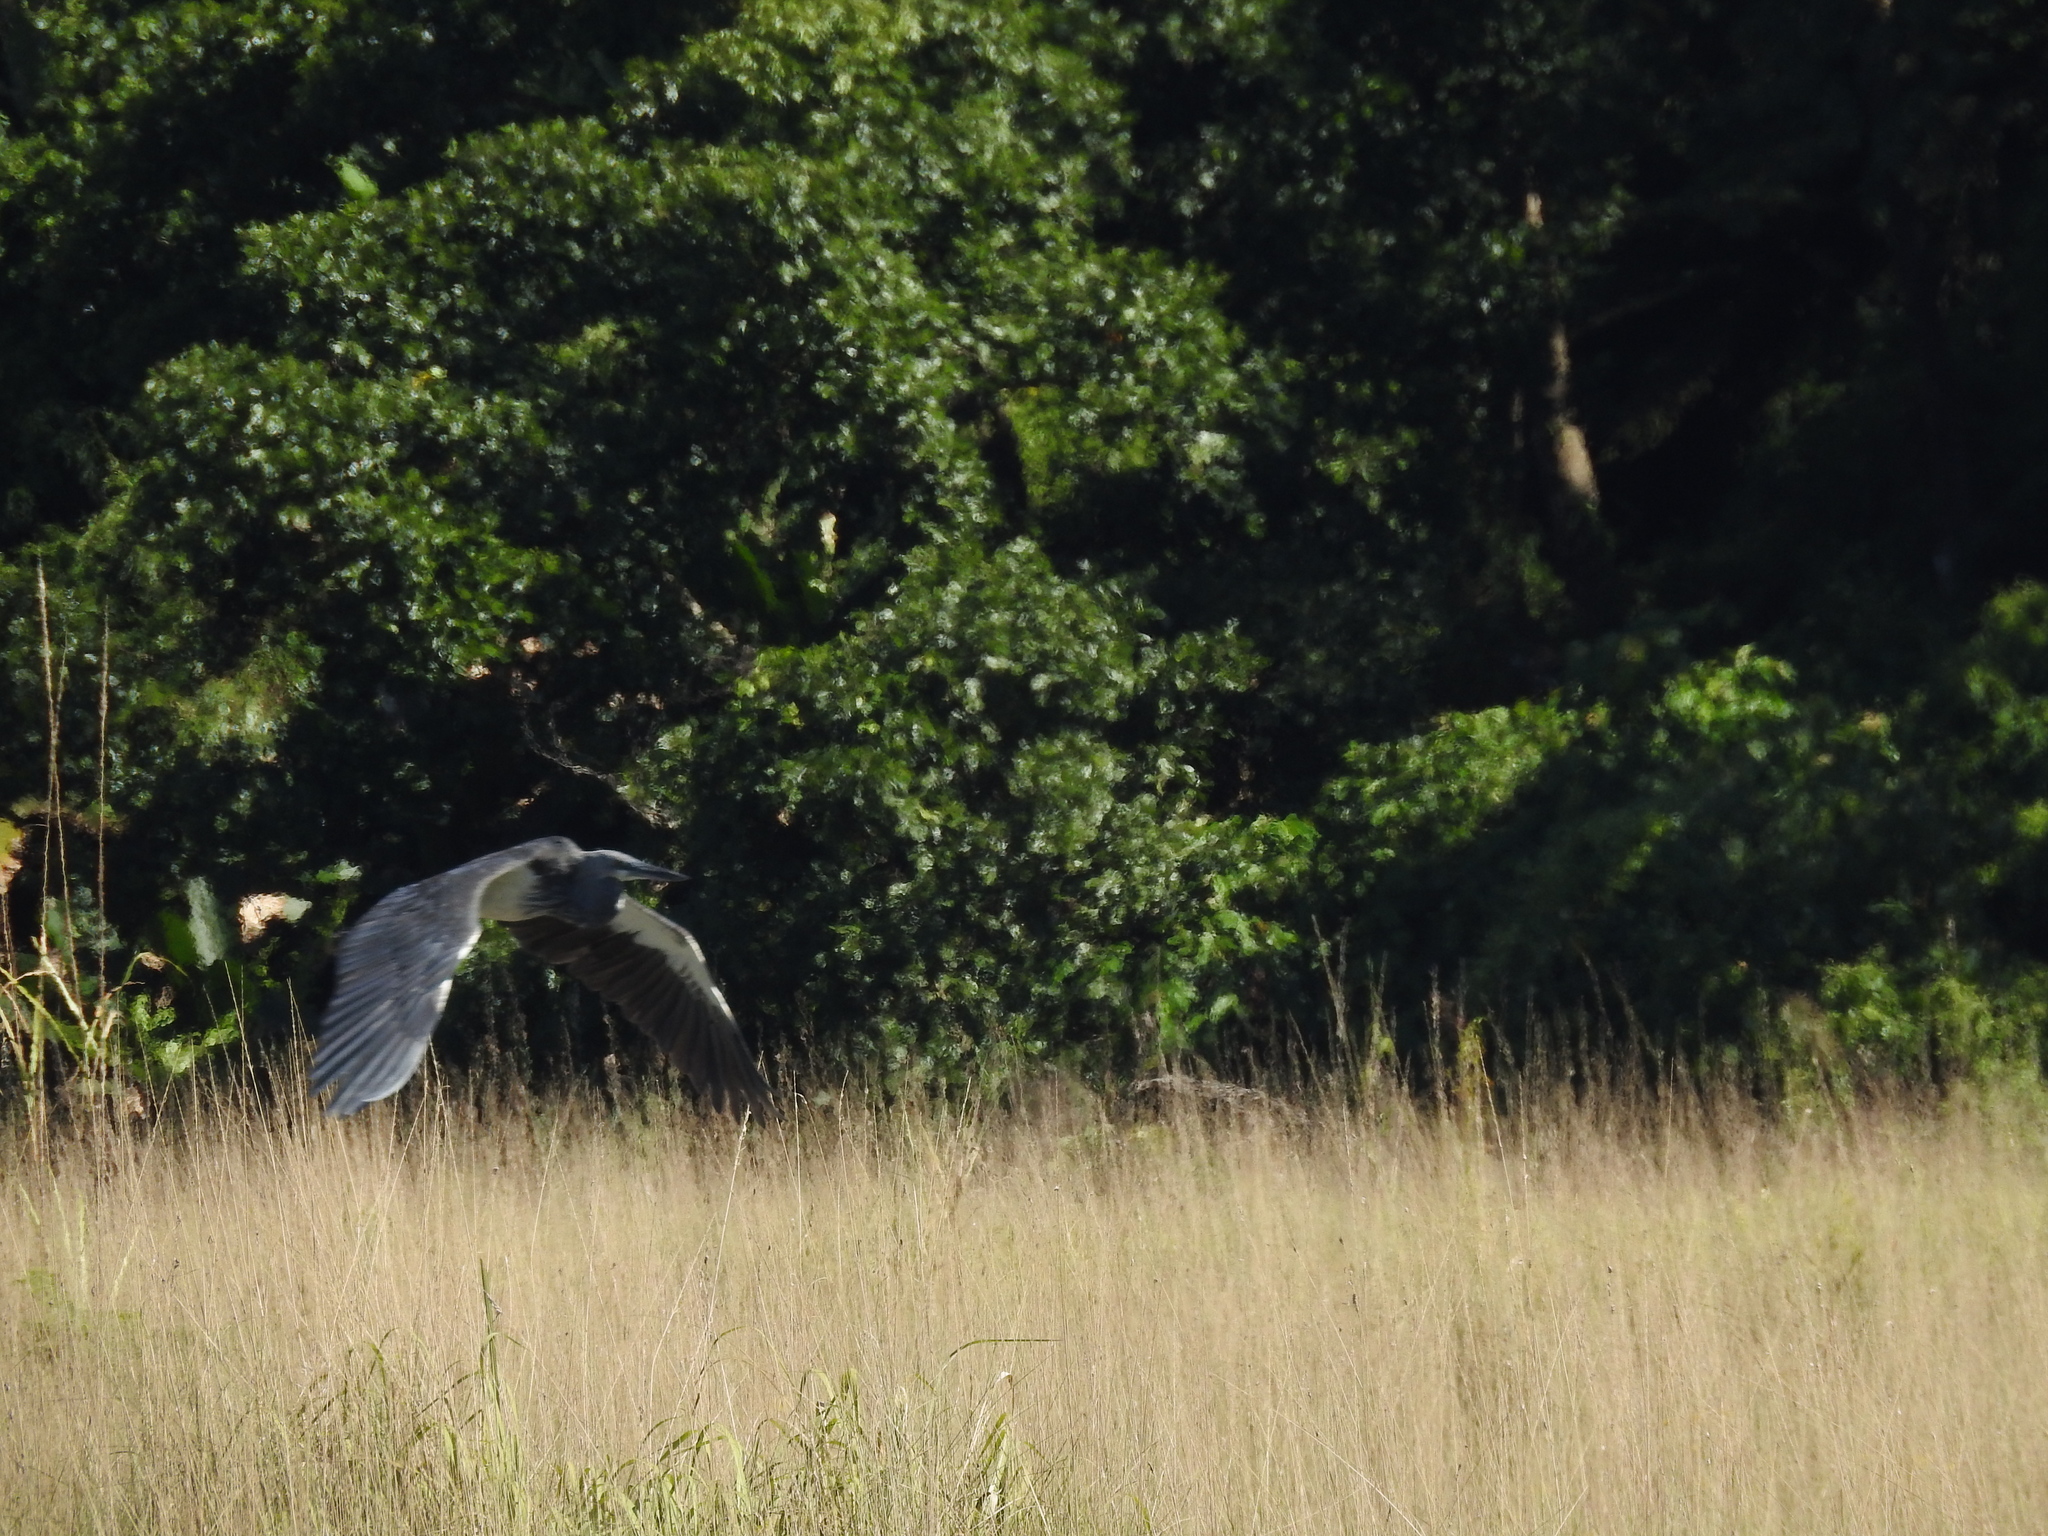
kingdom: Animalia
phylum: Chordata
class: Aves
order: Pelecaniformes
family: Ardeidae
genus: Ardea
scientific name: Ardea insignis
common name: White-bellied heron
